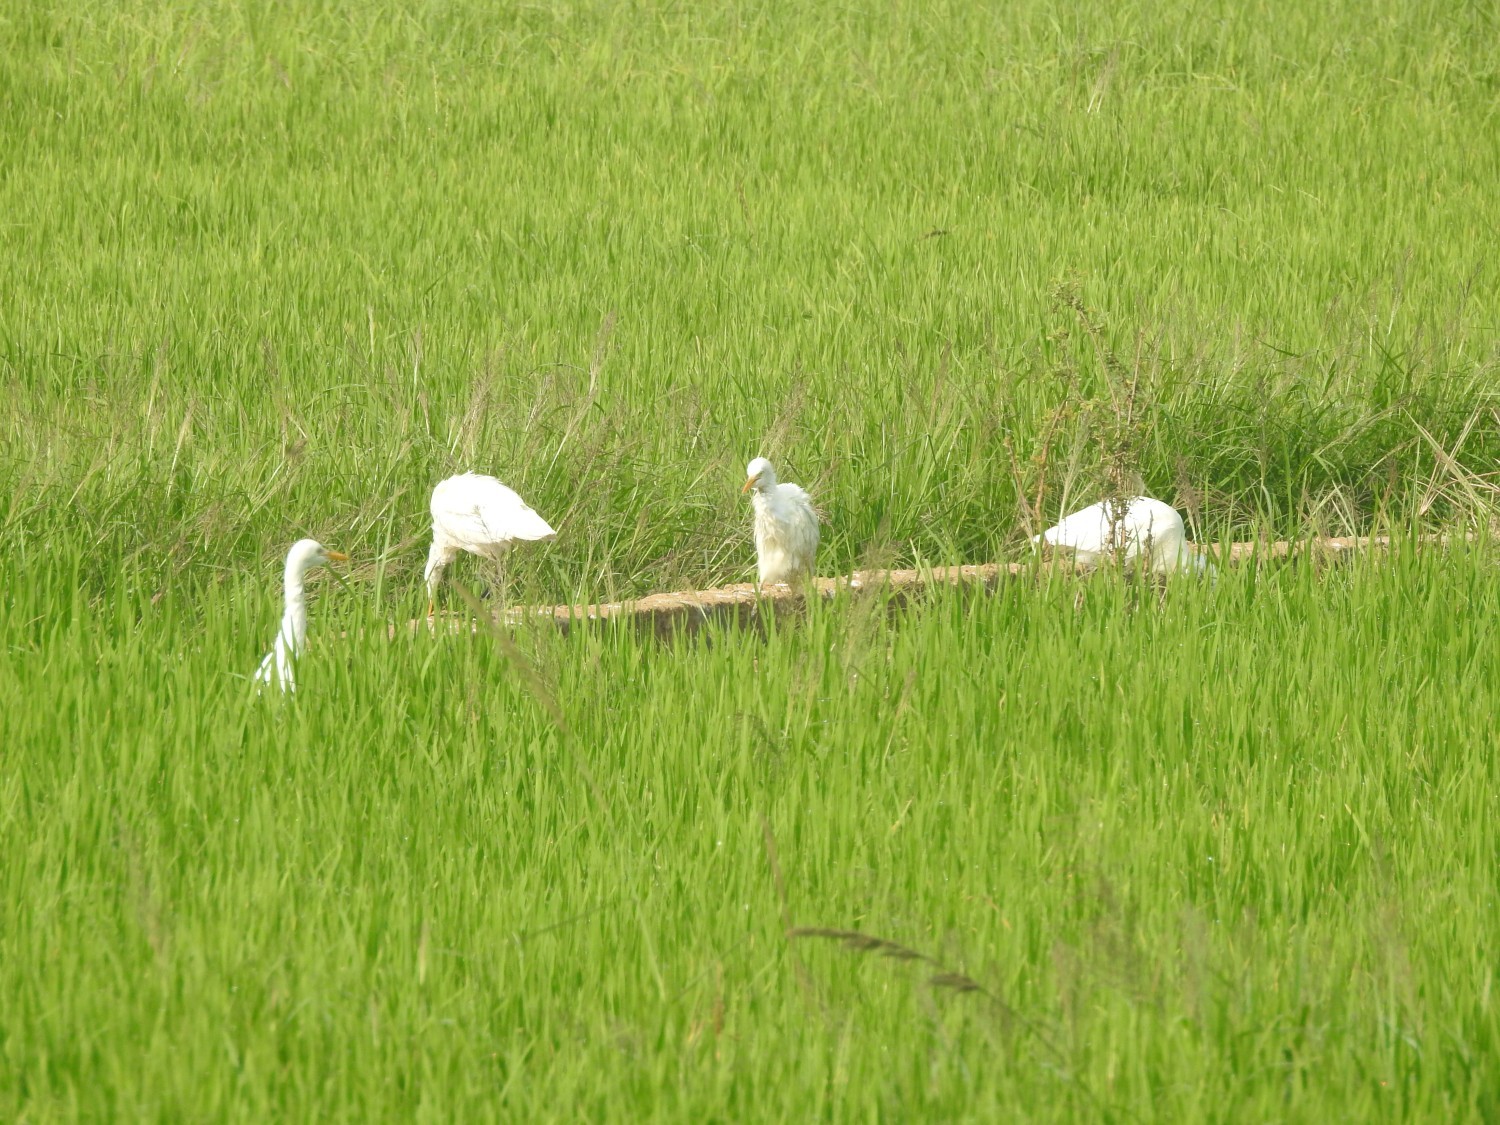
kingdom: Animalia
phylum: Chordata
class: Aves
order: Pelecaniformes
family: Ardeidae
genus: Bubulcus
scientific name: Bubulcus coromandus
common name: Eastern cattle egret
